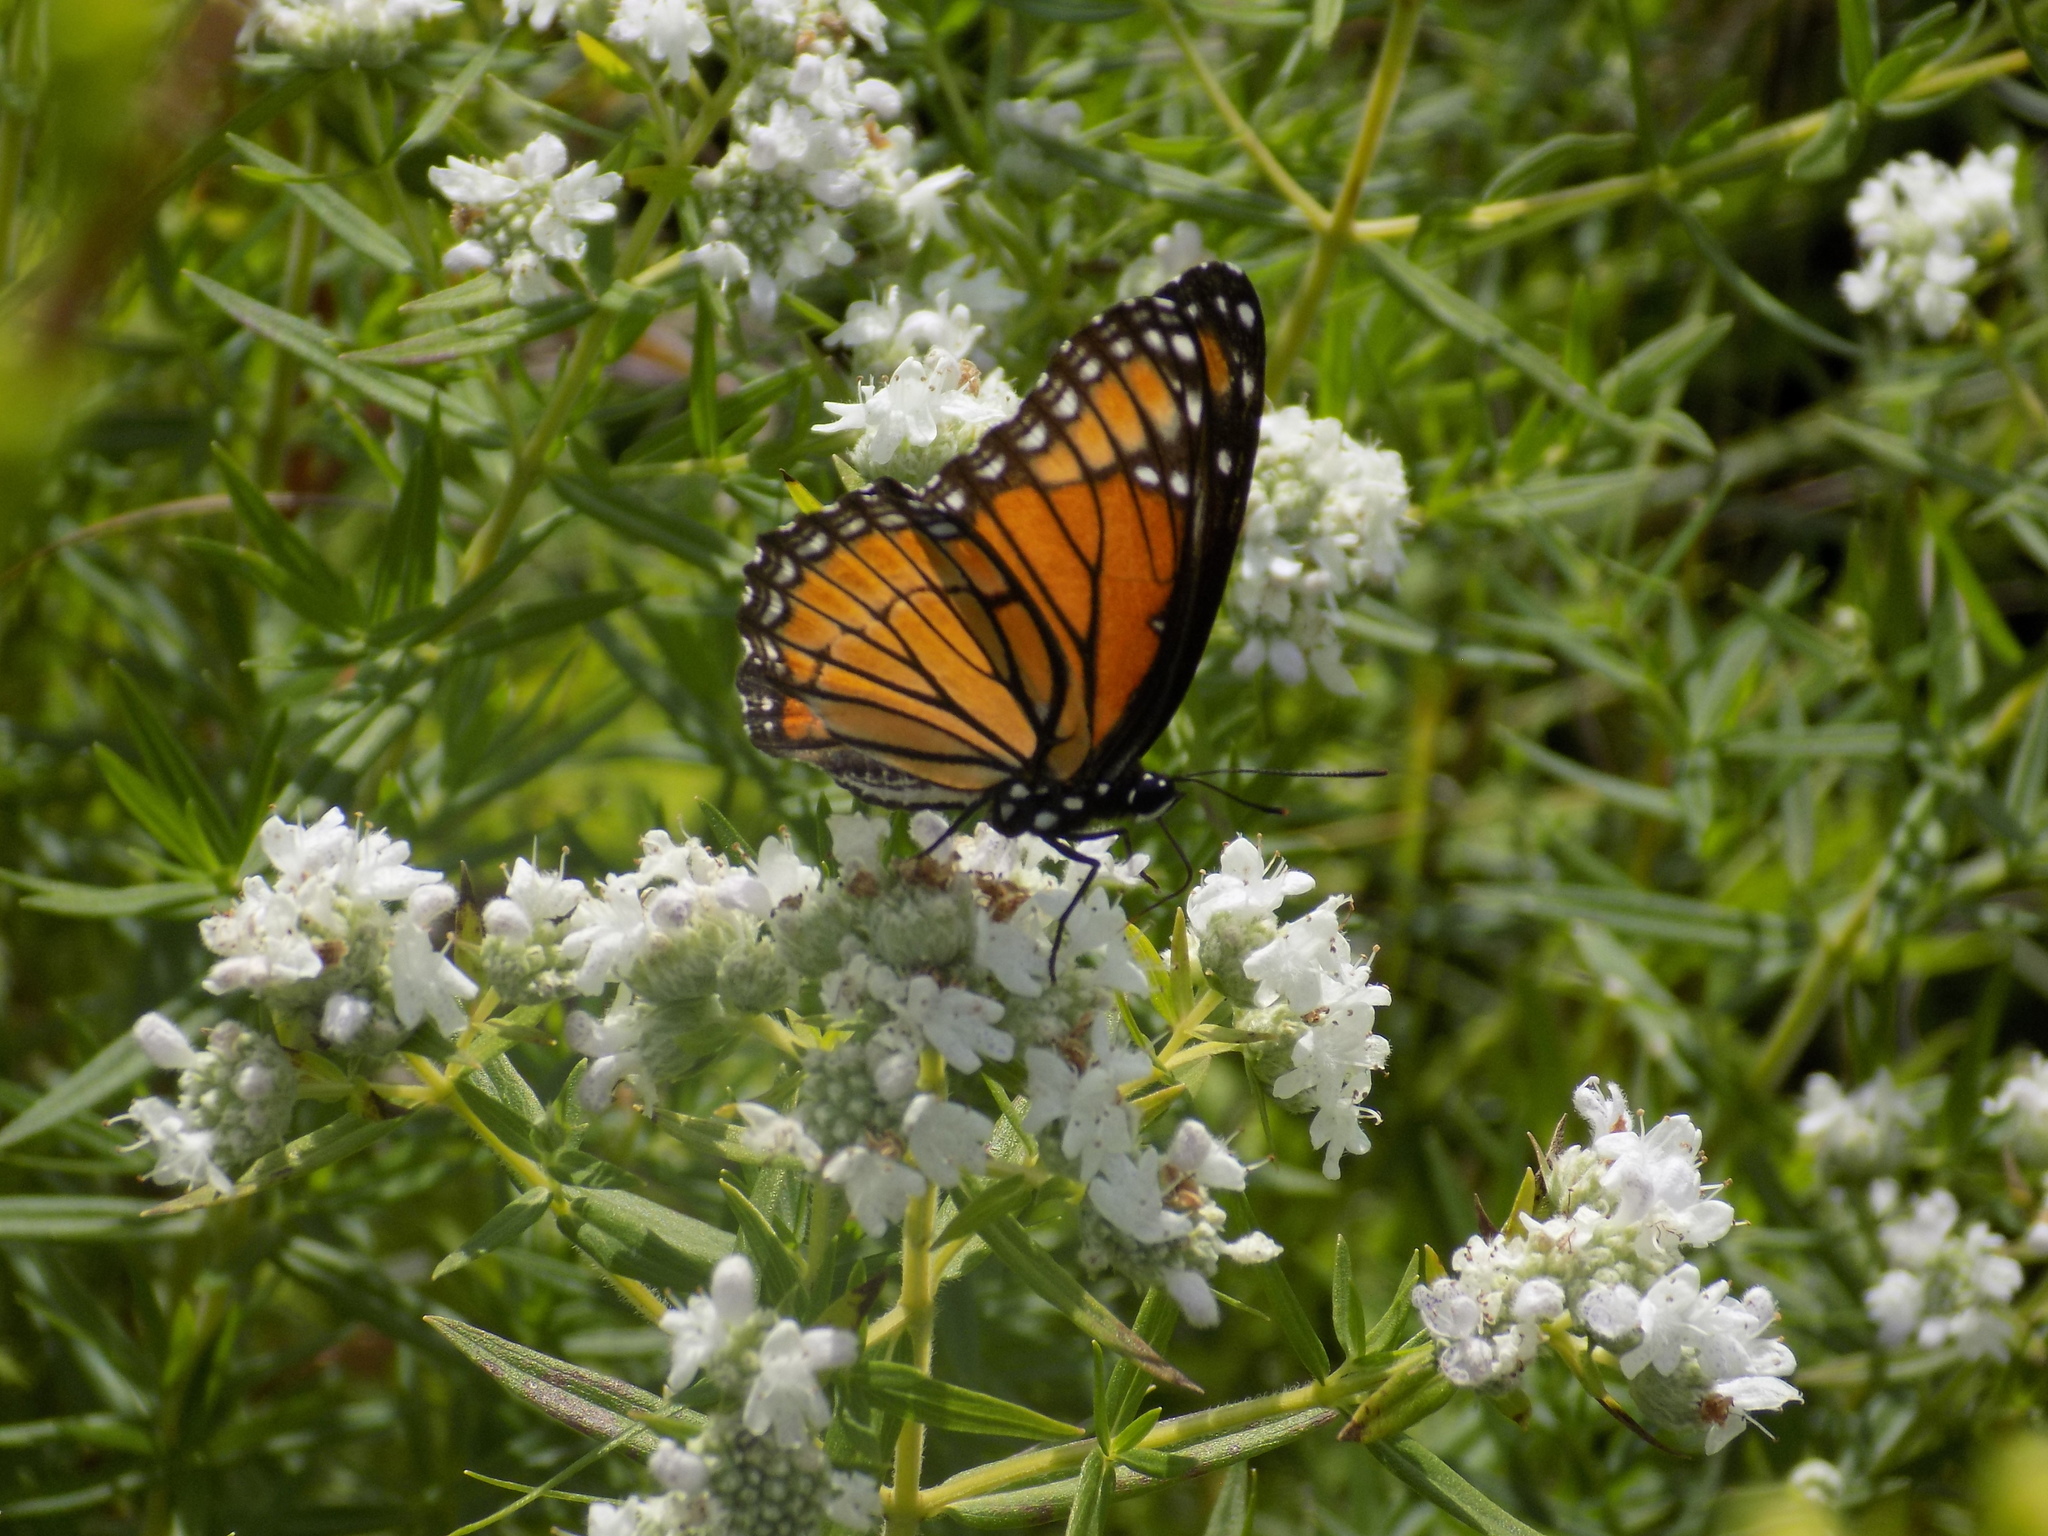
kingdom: Animalia
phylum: Arthropoda
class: Insecta
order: Lepidoptera
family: Nymphalidae
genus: Limenitis
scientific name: Limenitis archippus
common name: Viceroy
